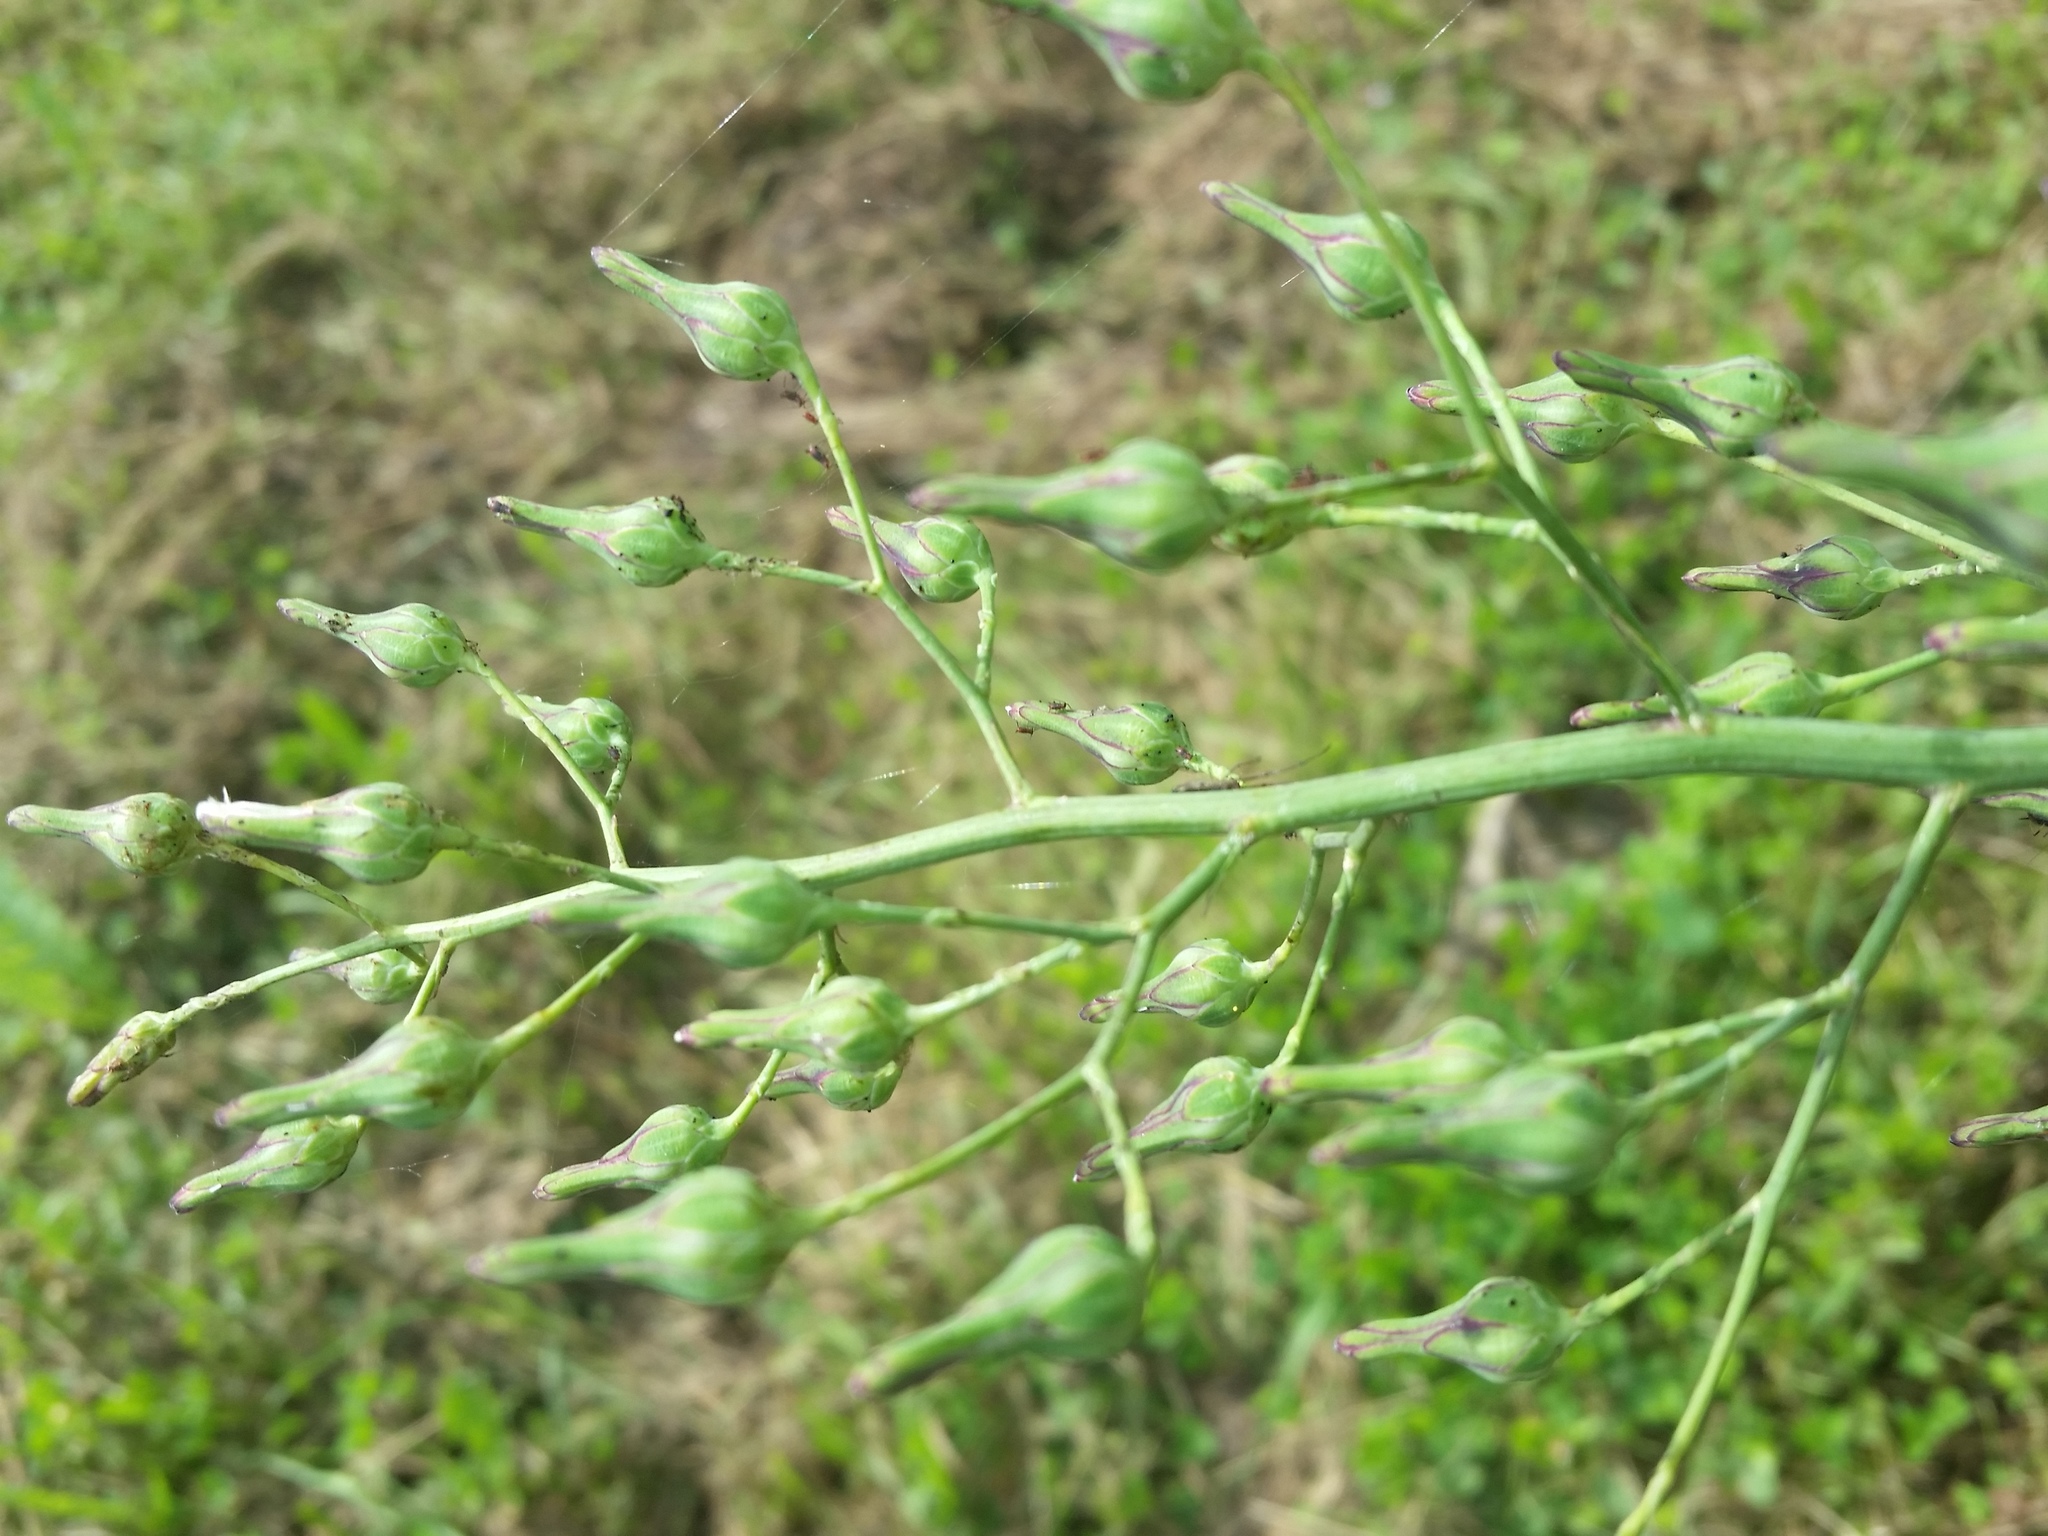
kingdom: Plantae
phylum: Tracheophyta
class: Magnoliopsida
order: Asterales
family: Asteraceae
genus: Lactuca
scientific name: Lactuca indica
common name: Wild lettuce
